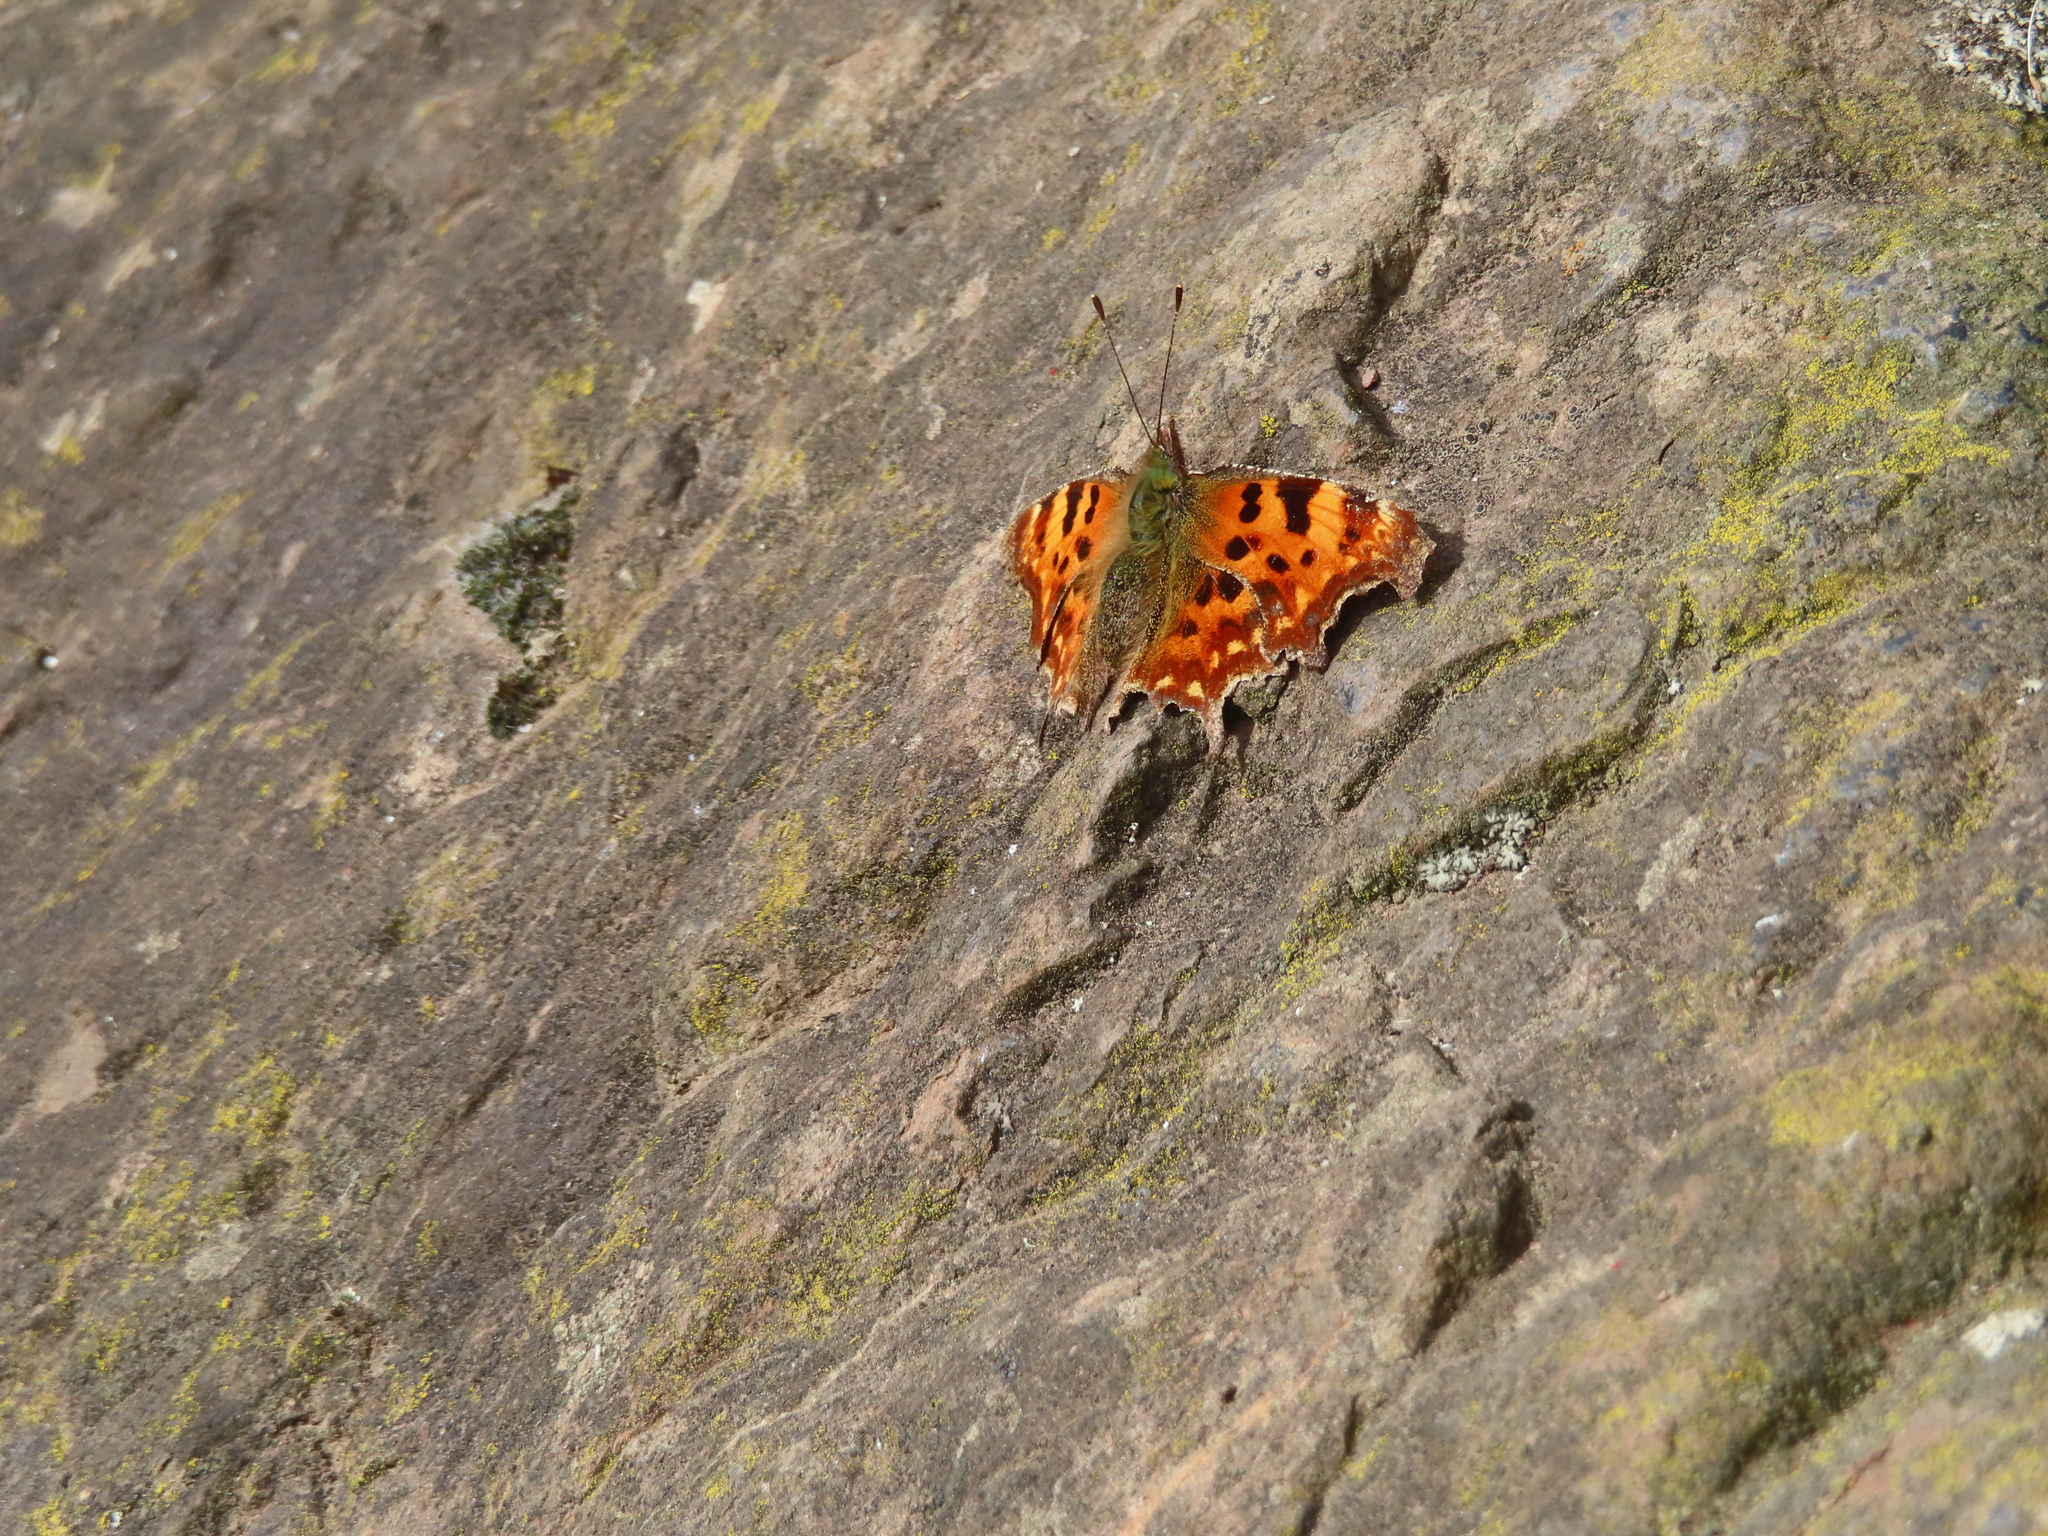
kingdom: Animalia
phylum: Arthropoda
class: Insecta
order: Lepidoptera
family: Nymphalidae
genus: Polygonia
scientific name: Polygonia c-album
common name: Comma
